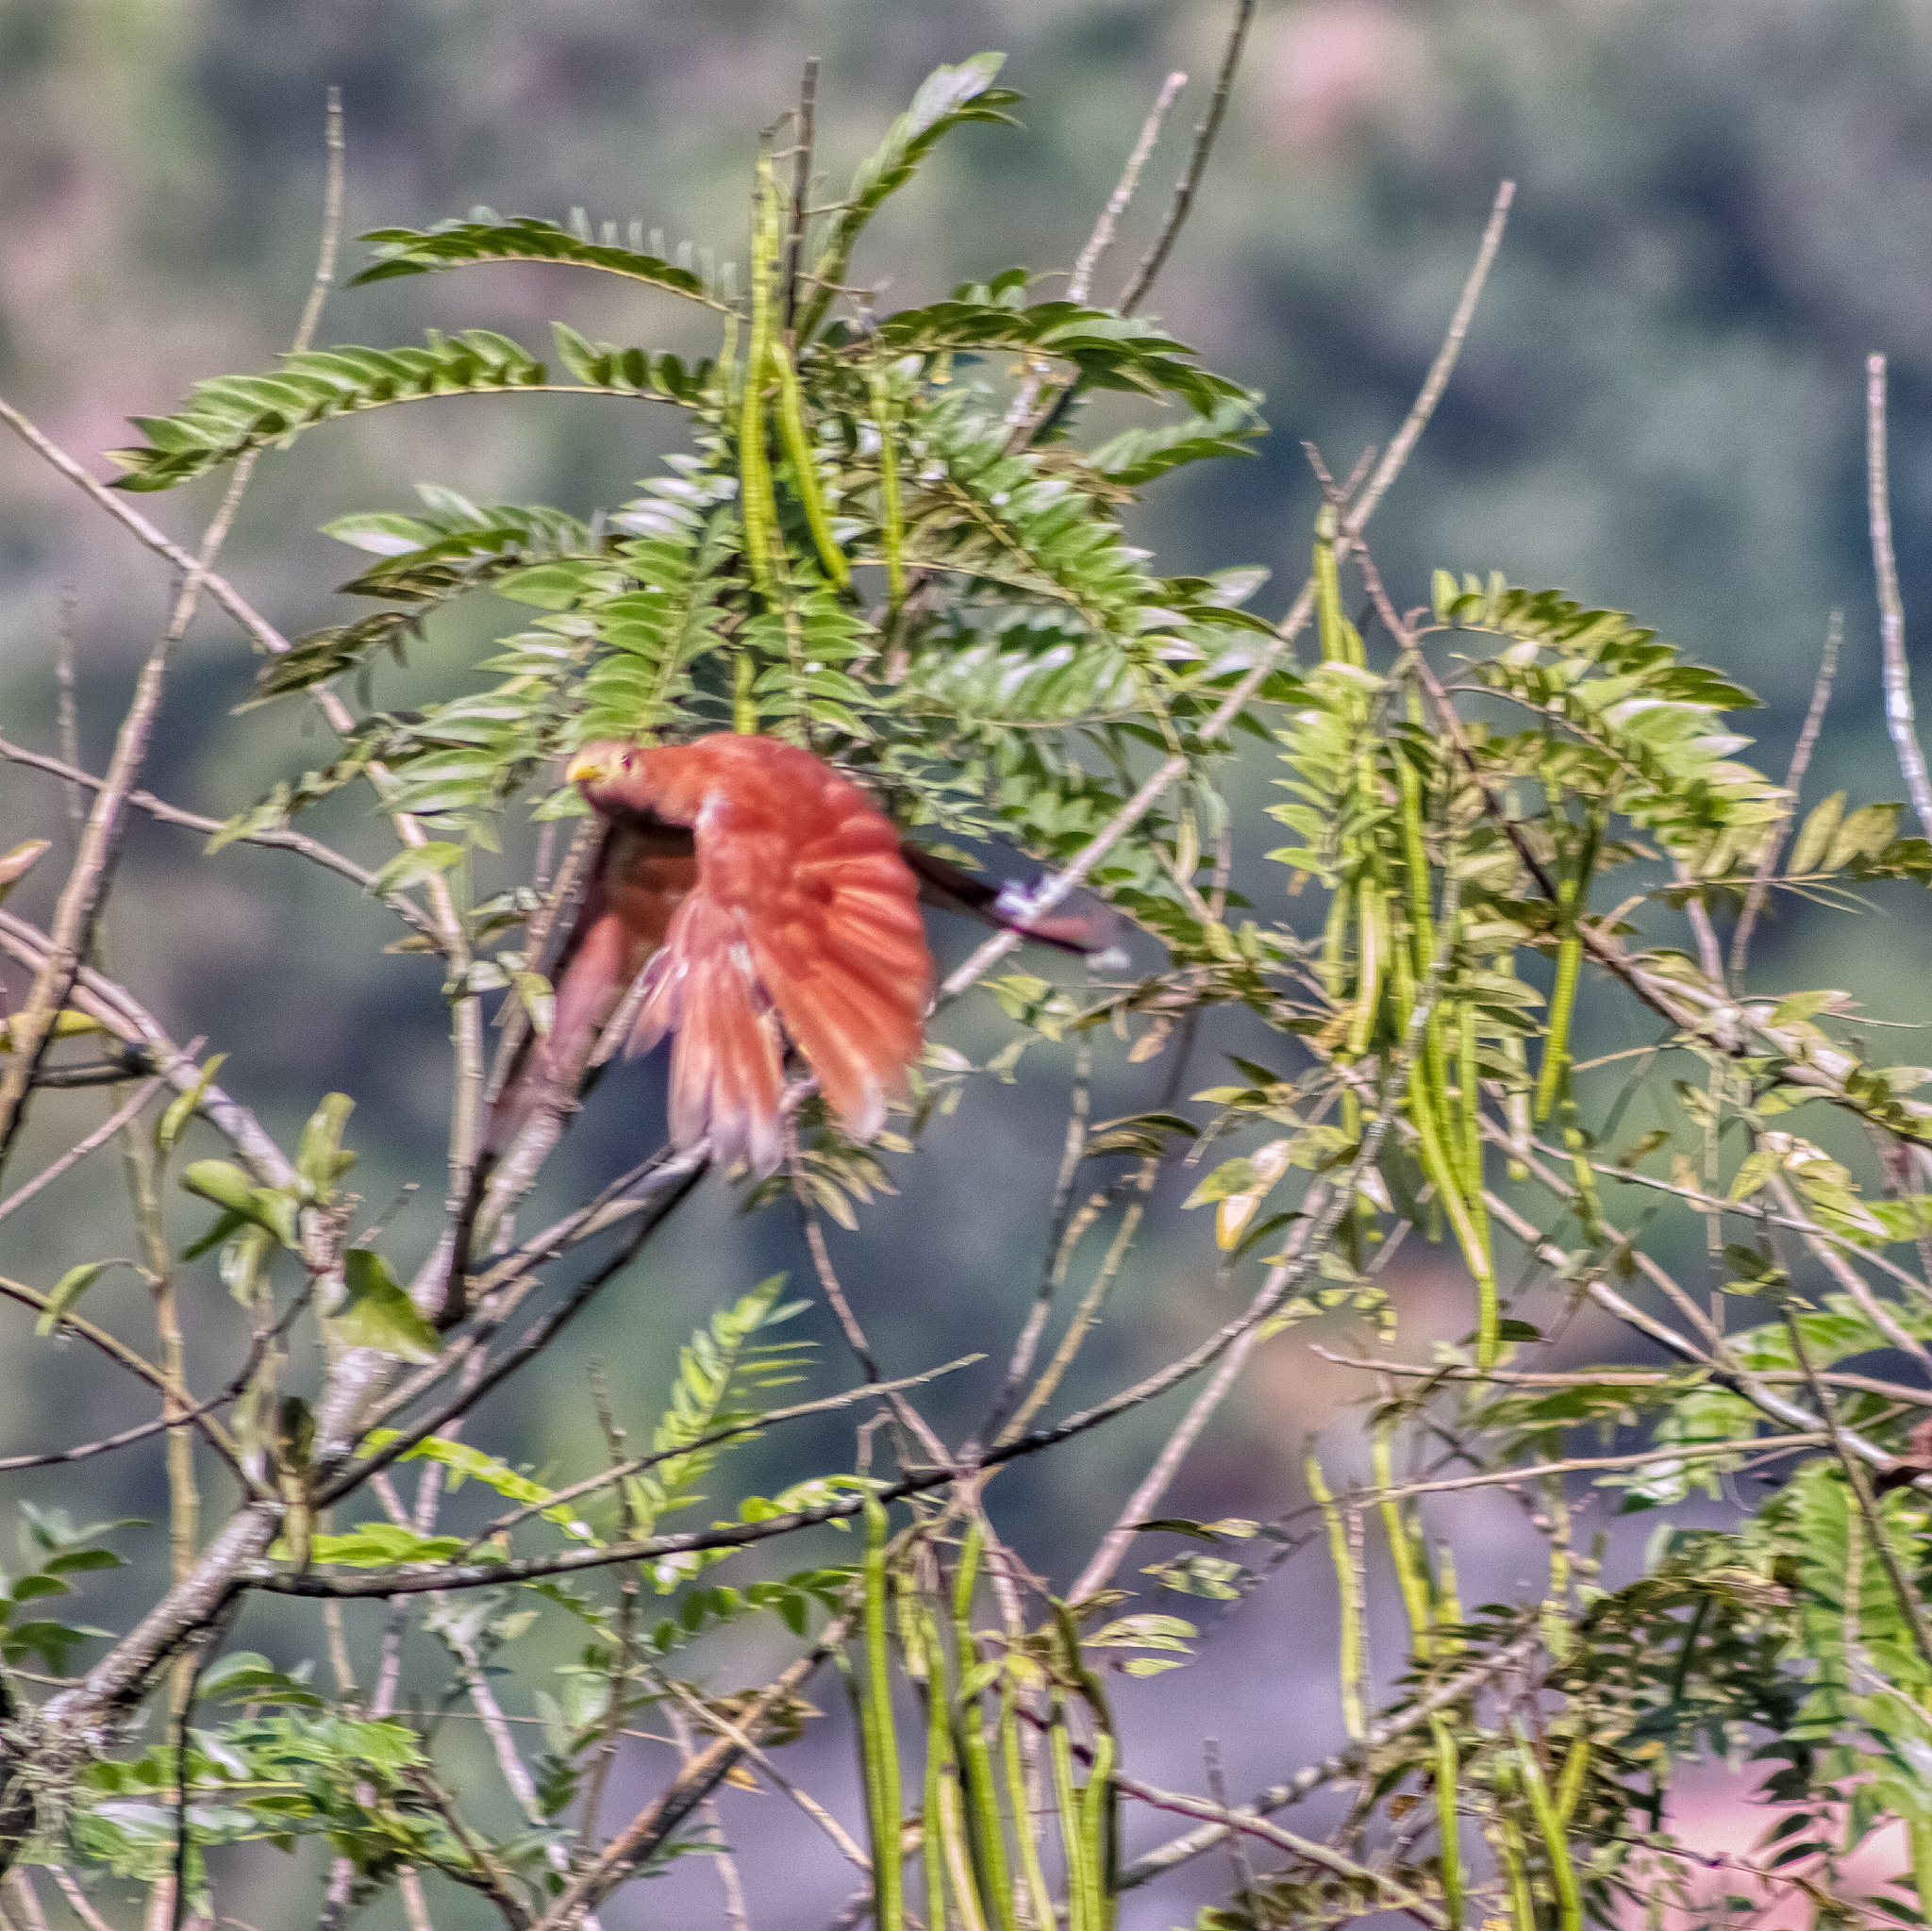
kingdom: Animalia
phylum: Chordata
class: Aves
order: Cuculiformes
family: Cuculidae
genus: Piaya
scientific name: Piaya cayana
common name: Squirrel cuckoo
